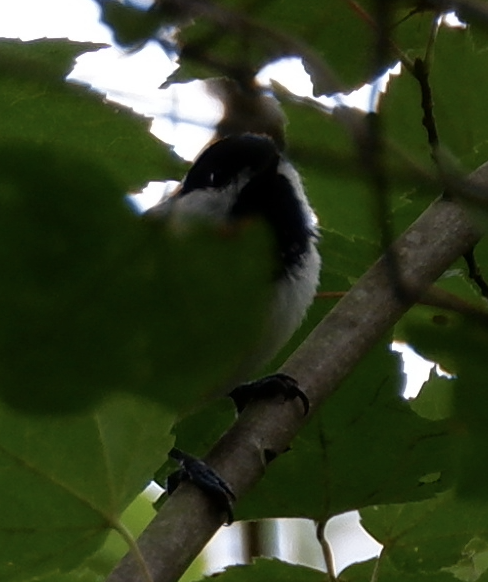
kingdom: Animalia
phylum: Chordata
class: Aves
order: Passeriformes
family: Paridae
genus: Poecile
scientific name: Poecile carolinensis
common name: Carolina chickadee
